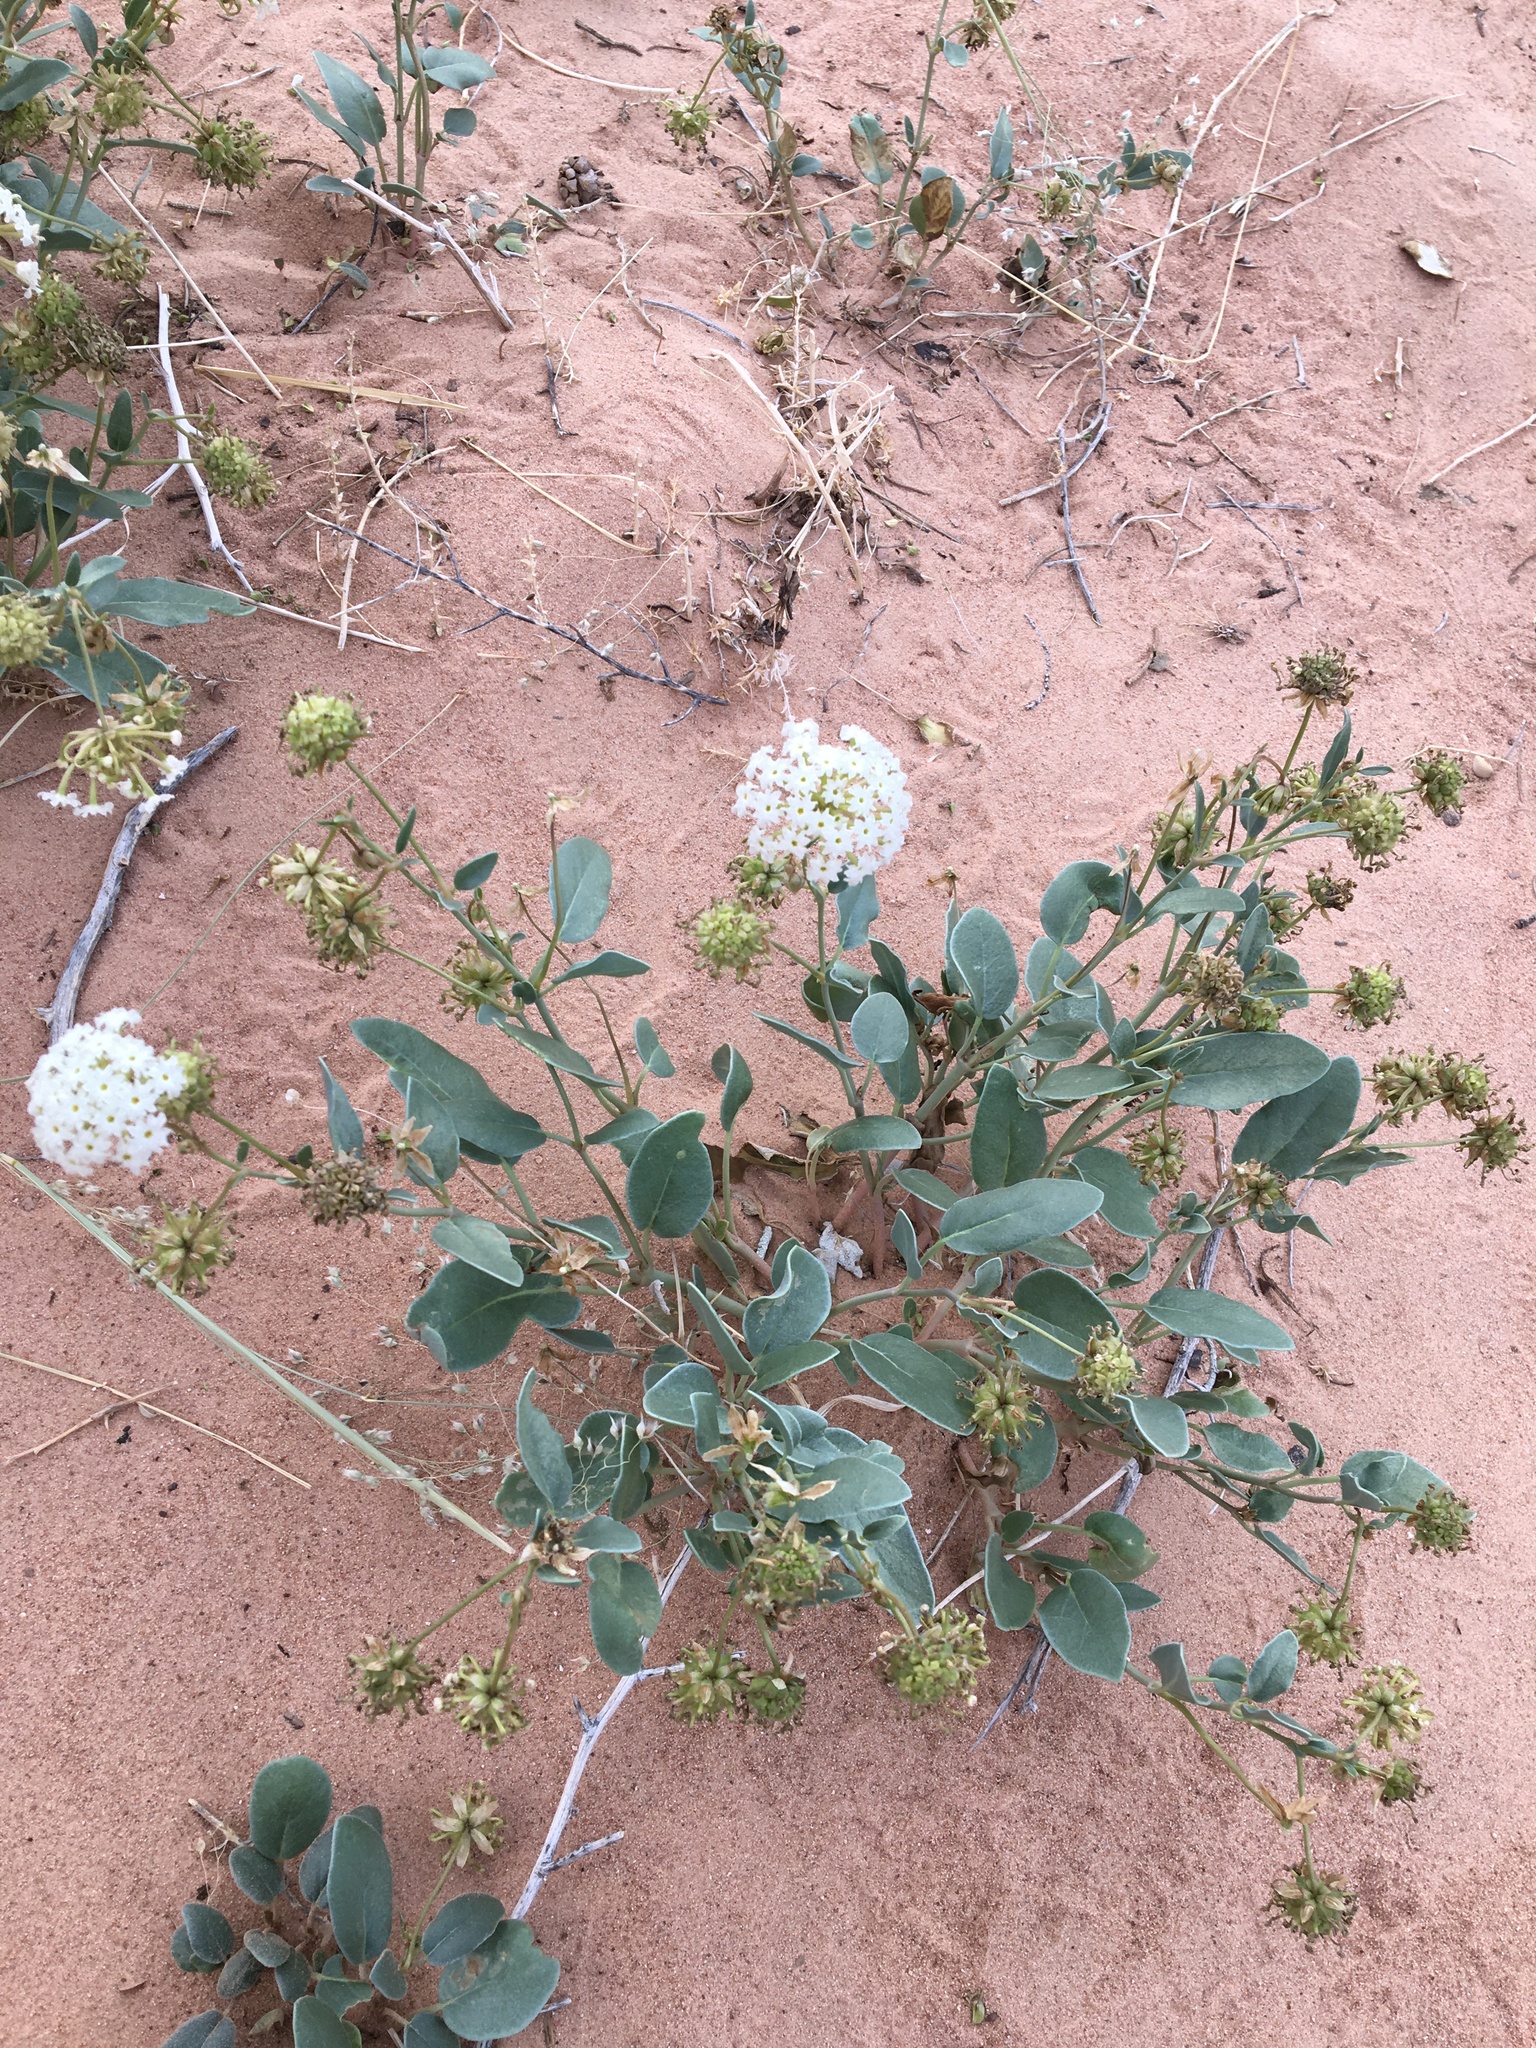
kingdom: Plantae
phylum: Tracheophyta
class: Magnoliopsida
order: Caryophyllales
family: Nyctaginaceae
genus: Abronia
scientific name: Abronia elliptica
